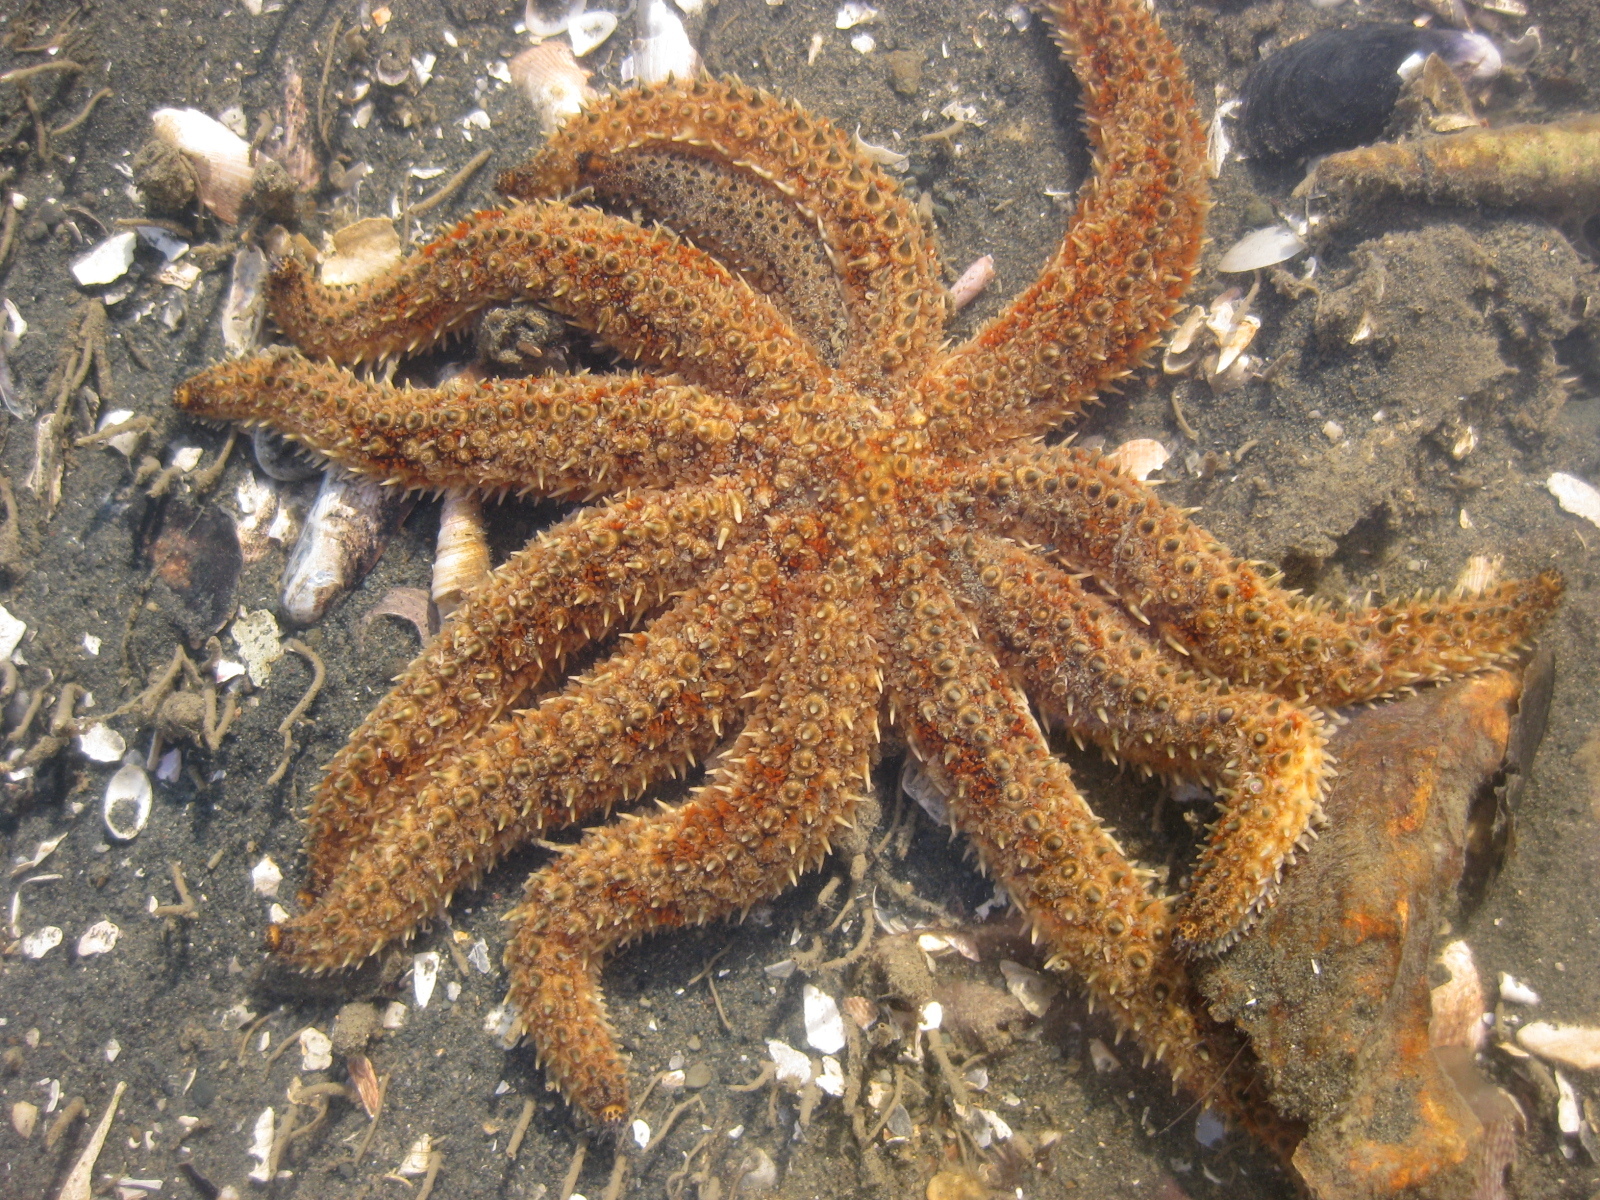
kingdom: Animalia
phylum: Echinodermata
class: Asteroidea
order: Forcipulatida
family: Asteriidae
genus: Coscinasterias
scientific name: Coscinasterias muricata
